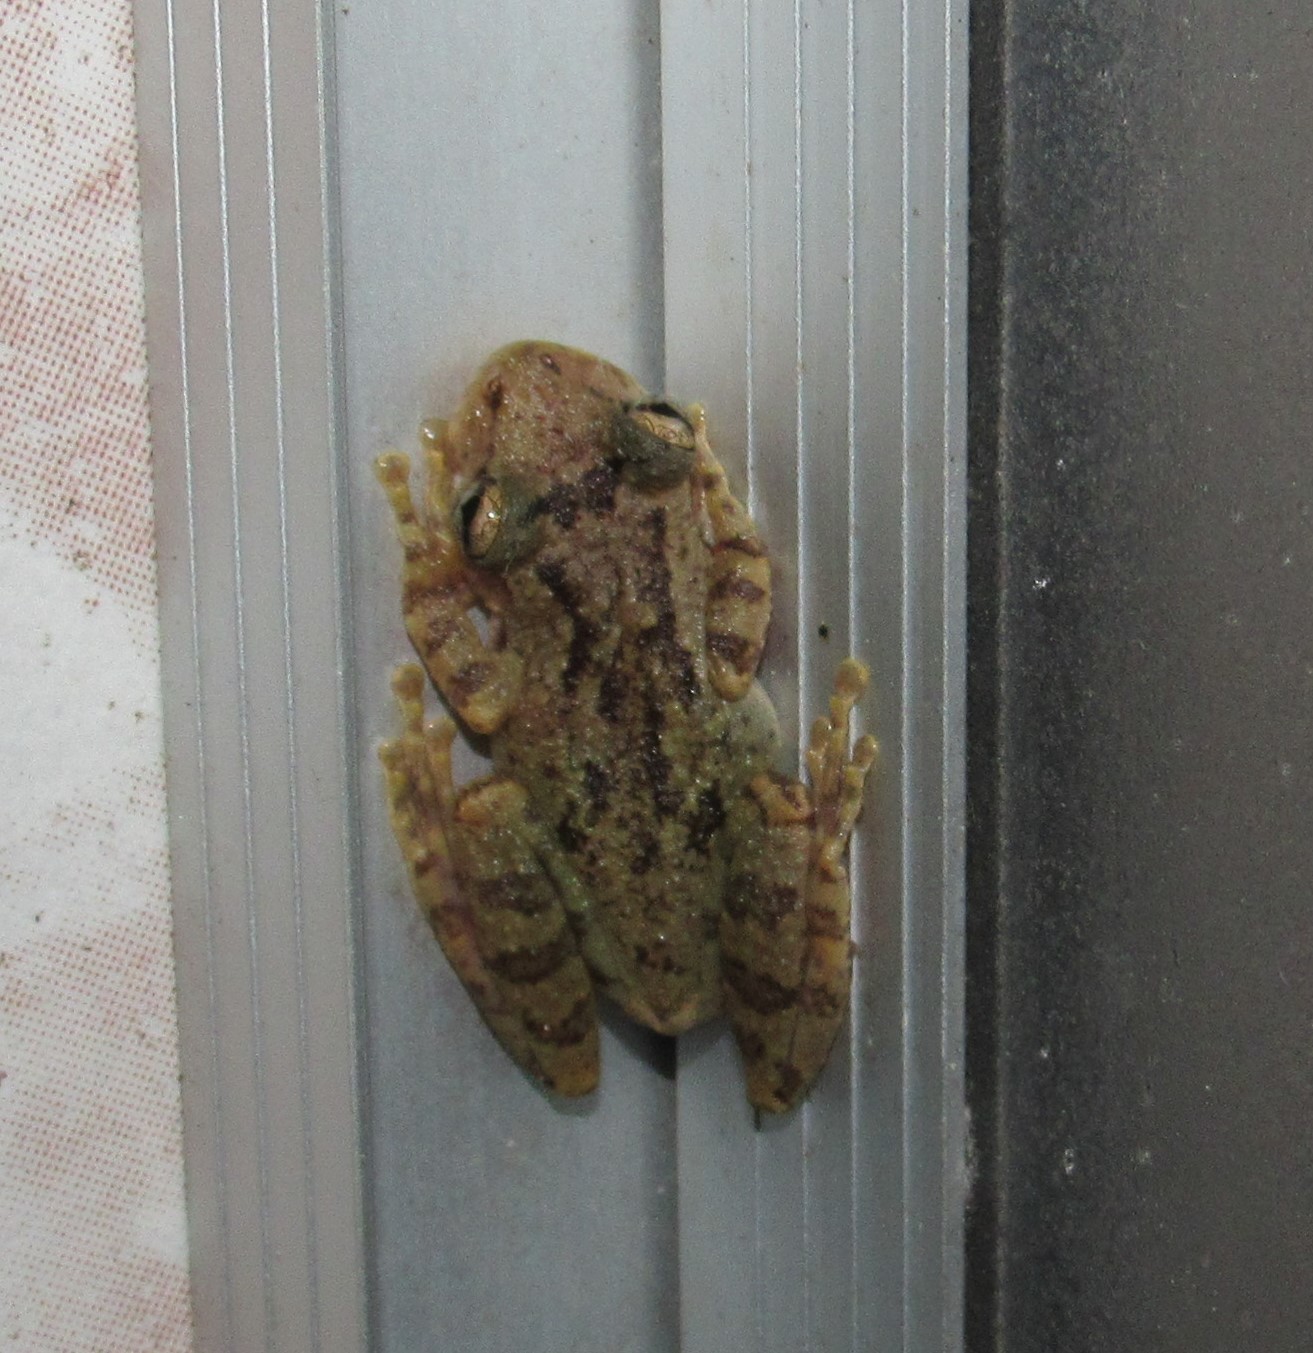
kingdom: Animalia
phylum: Chordata
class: Amphibia
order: Anura
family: Hylidae
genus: Scinax
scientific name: Scinax perereca
